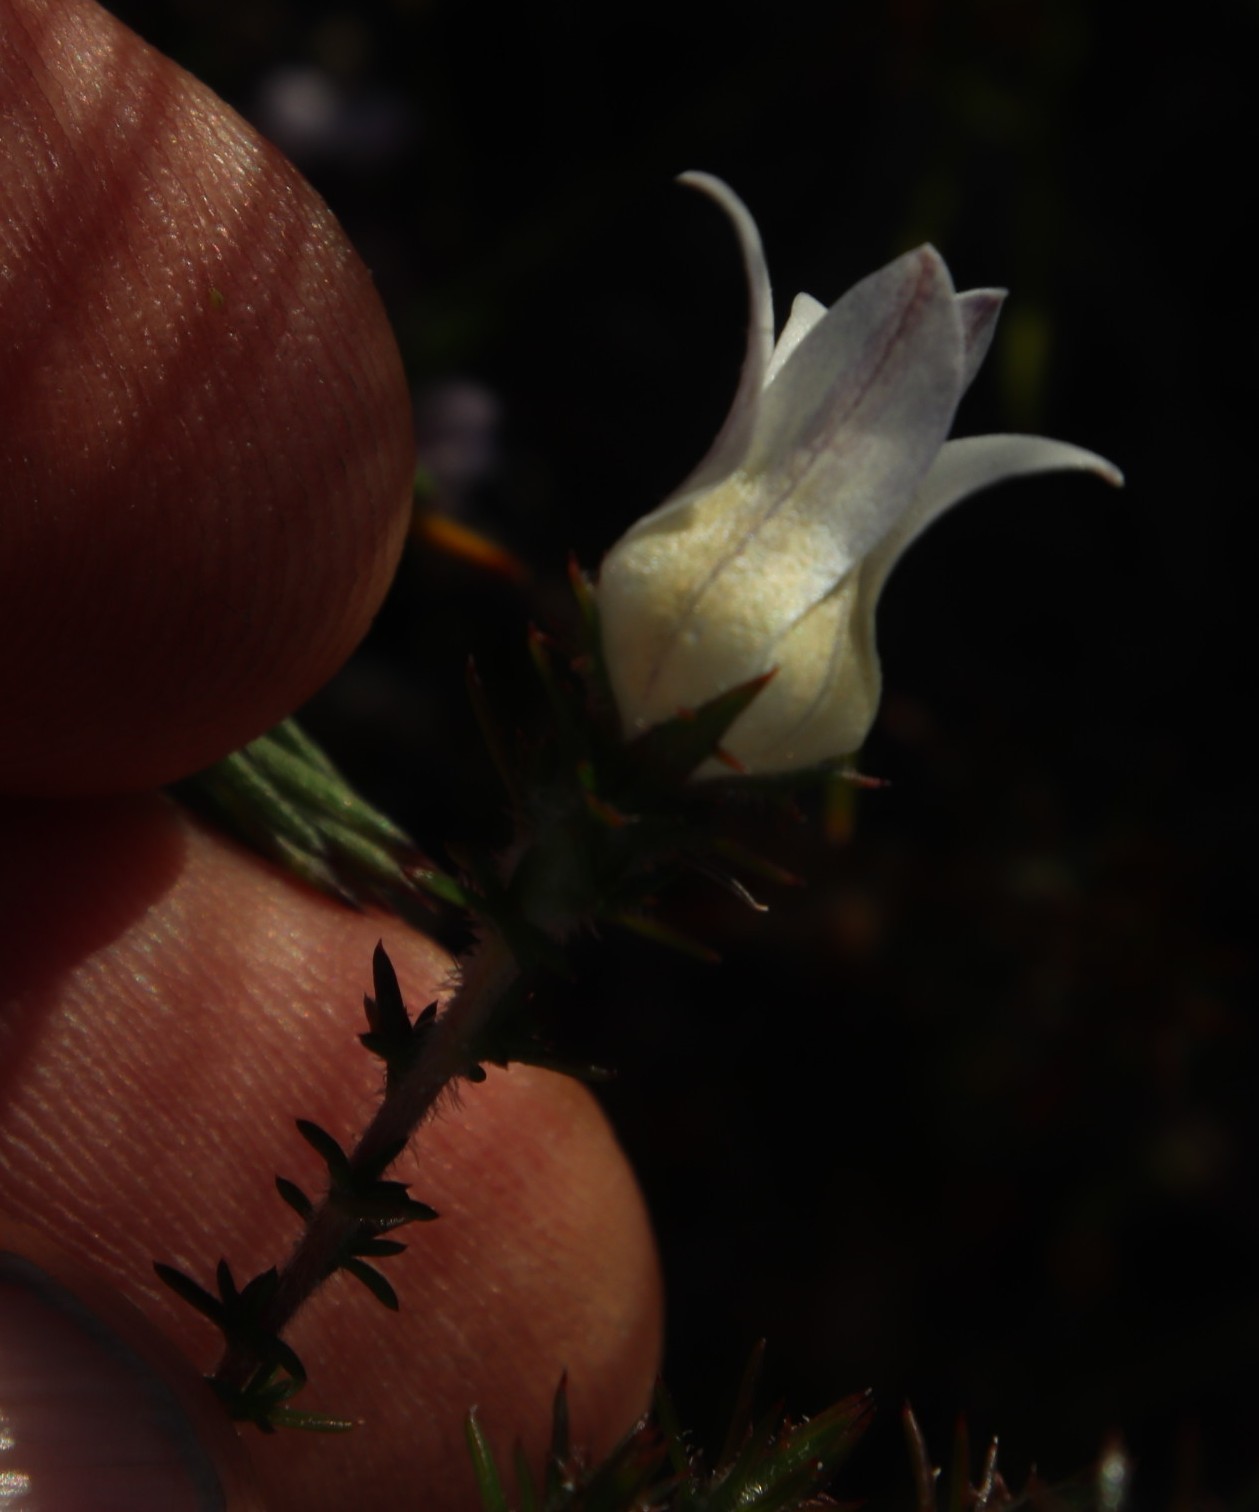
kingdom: Plantae
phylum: Tracheophyta
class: Magnoliopsida
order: Asterales
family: Campanulaceae
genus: Roella
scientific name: Roella compacta
